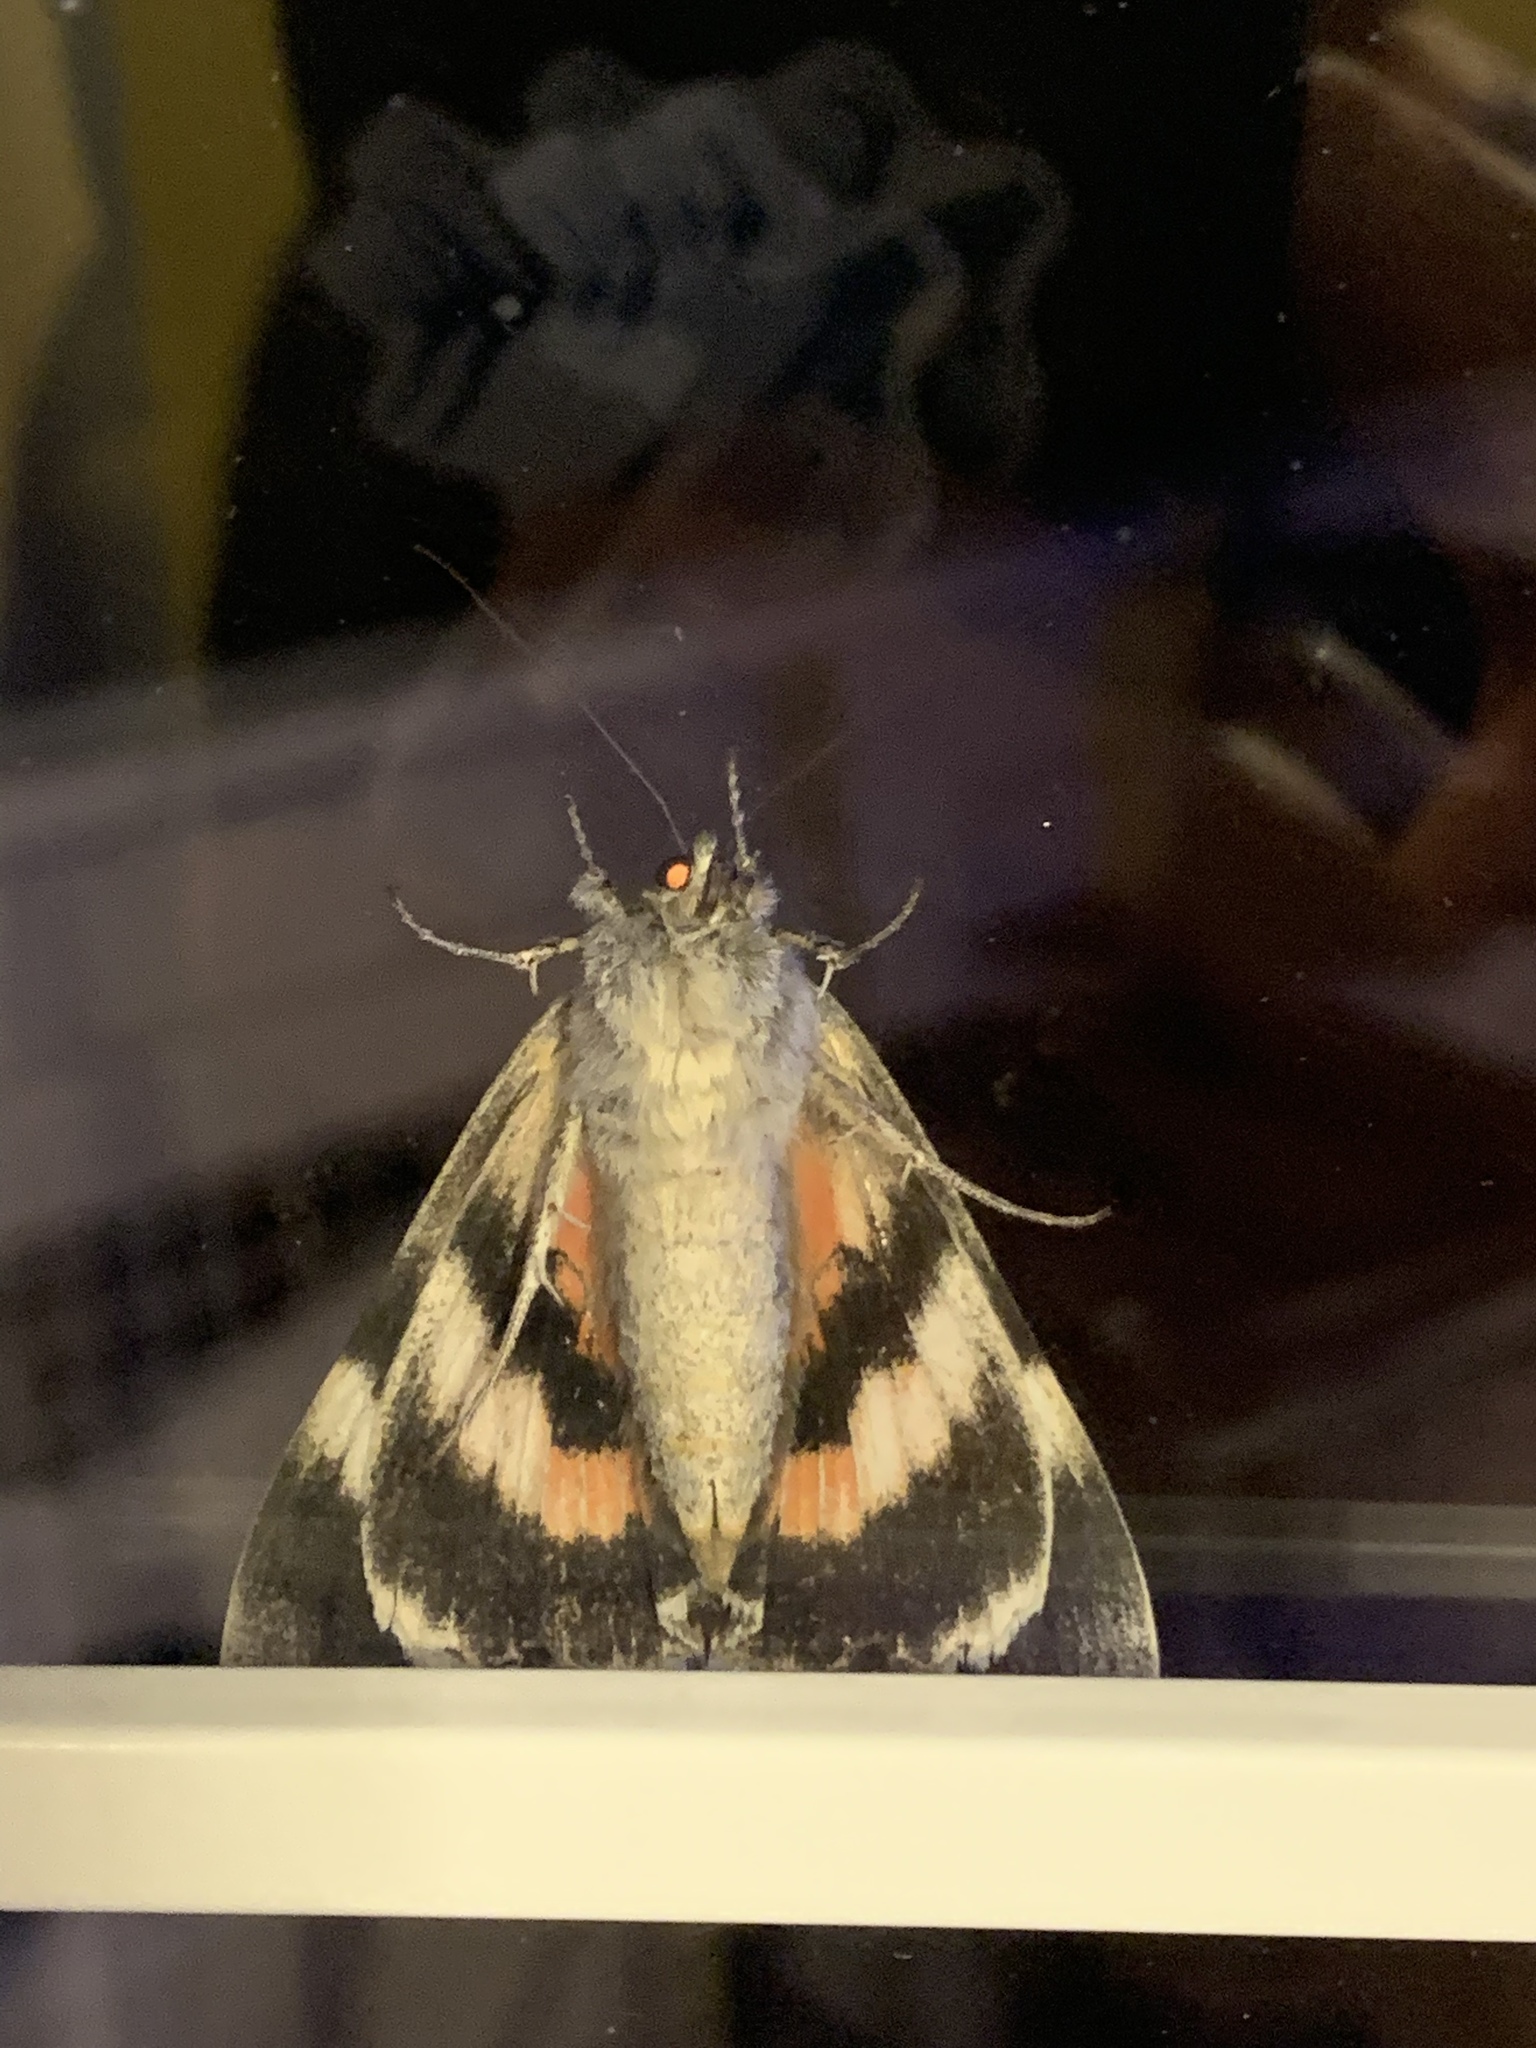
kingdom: Animalia
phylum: Arthropoda
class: Insecta
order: Lepidoptera
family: Erebidae
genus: Catocala
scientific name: Catocala unijuga
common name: Once-married underwing
